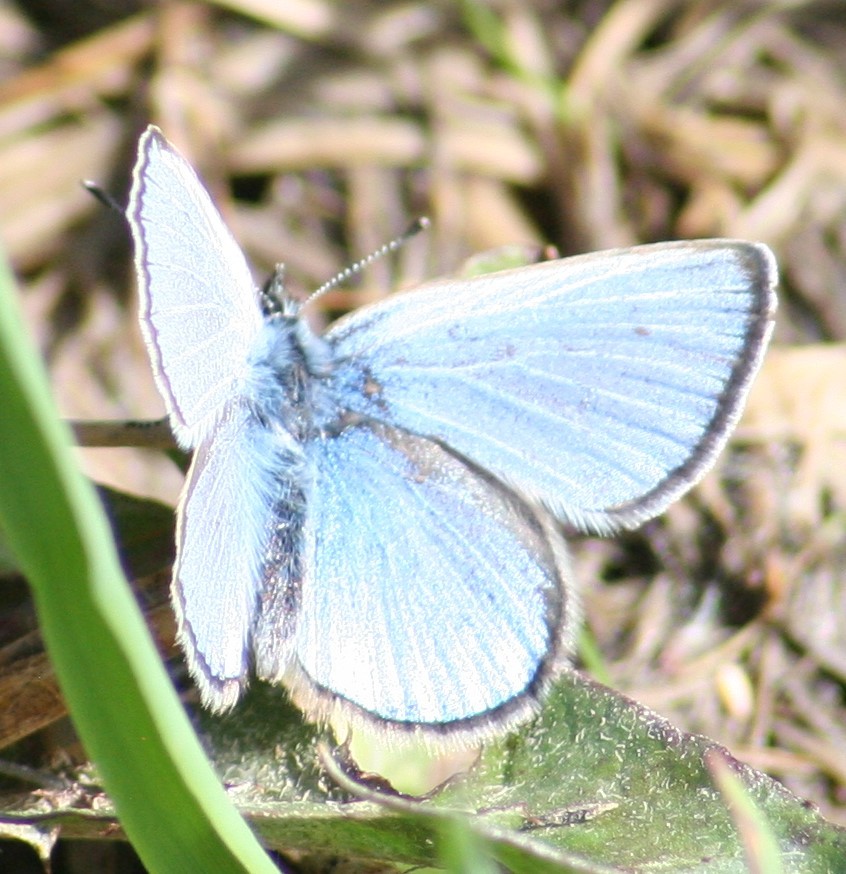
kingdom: Animalia
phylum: Arthropoda
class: Insecta
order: Lepidoptera
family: Lycaenidae
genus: Glaucopsyche
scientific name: Glaucopsyche lygdamus
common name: Silvery blue
